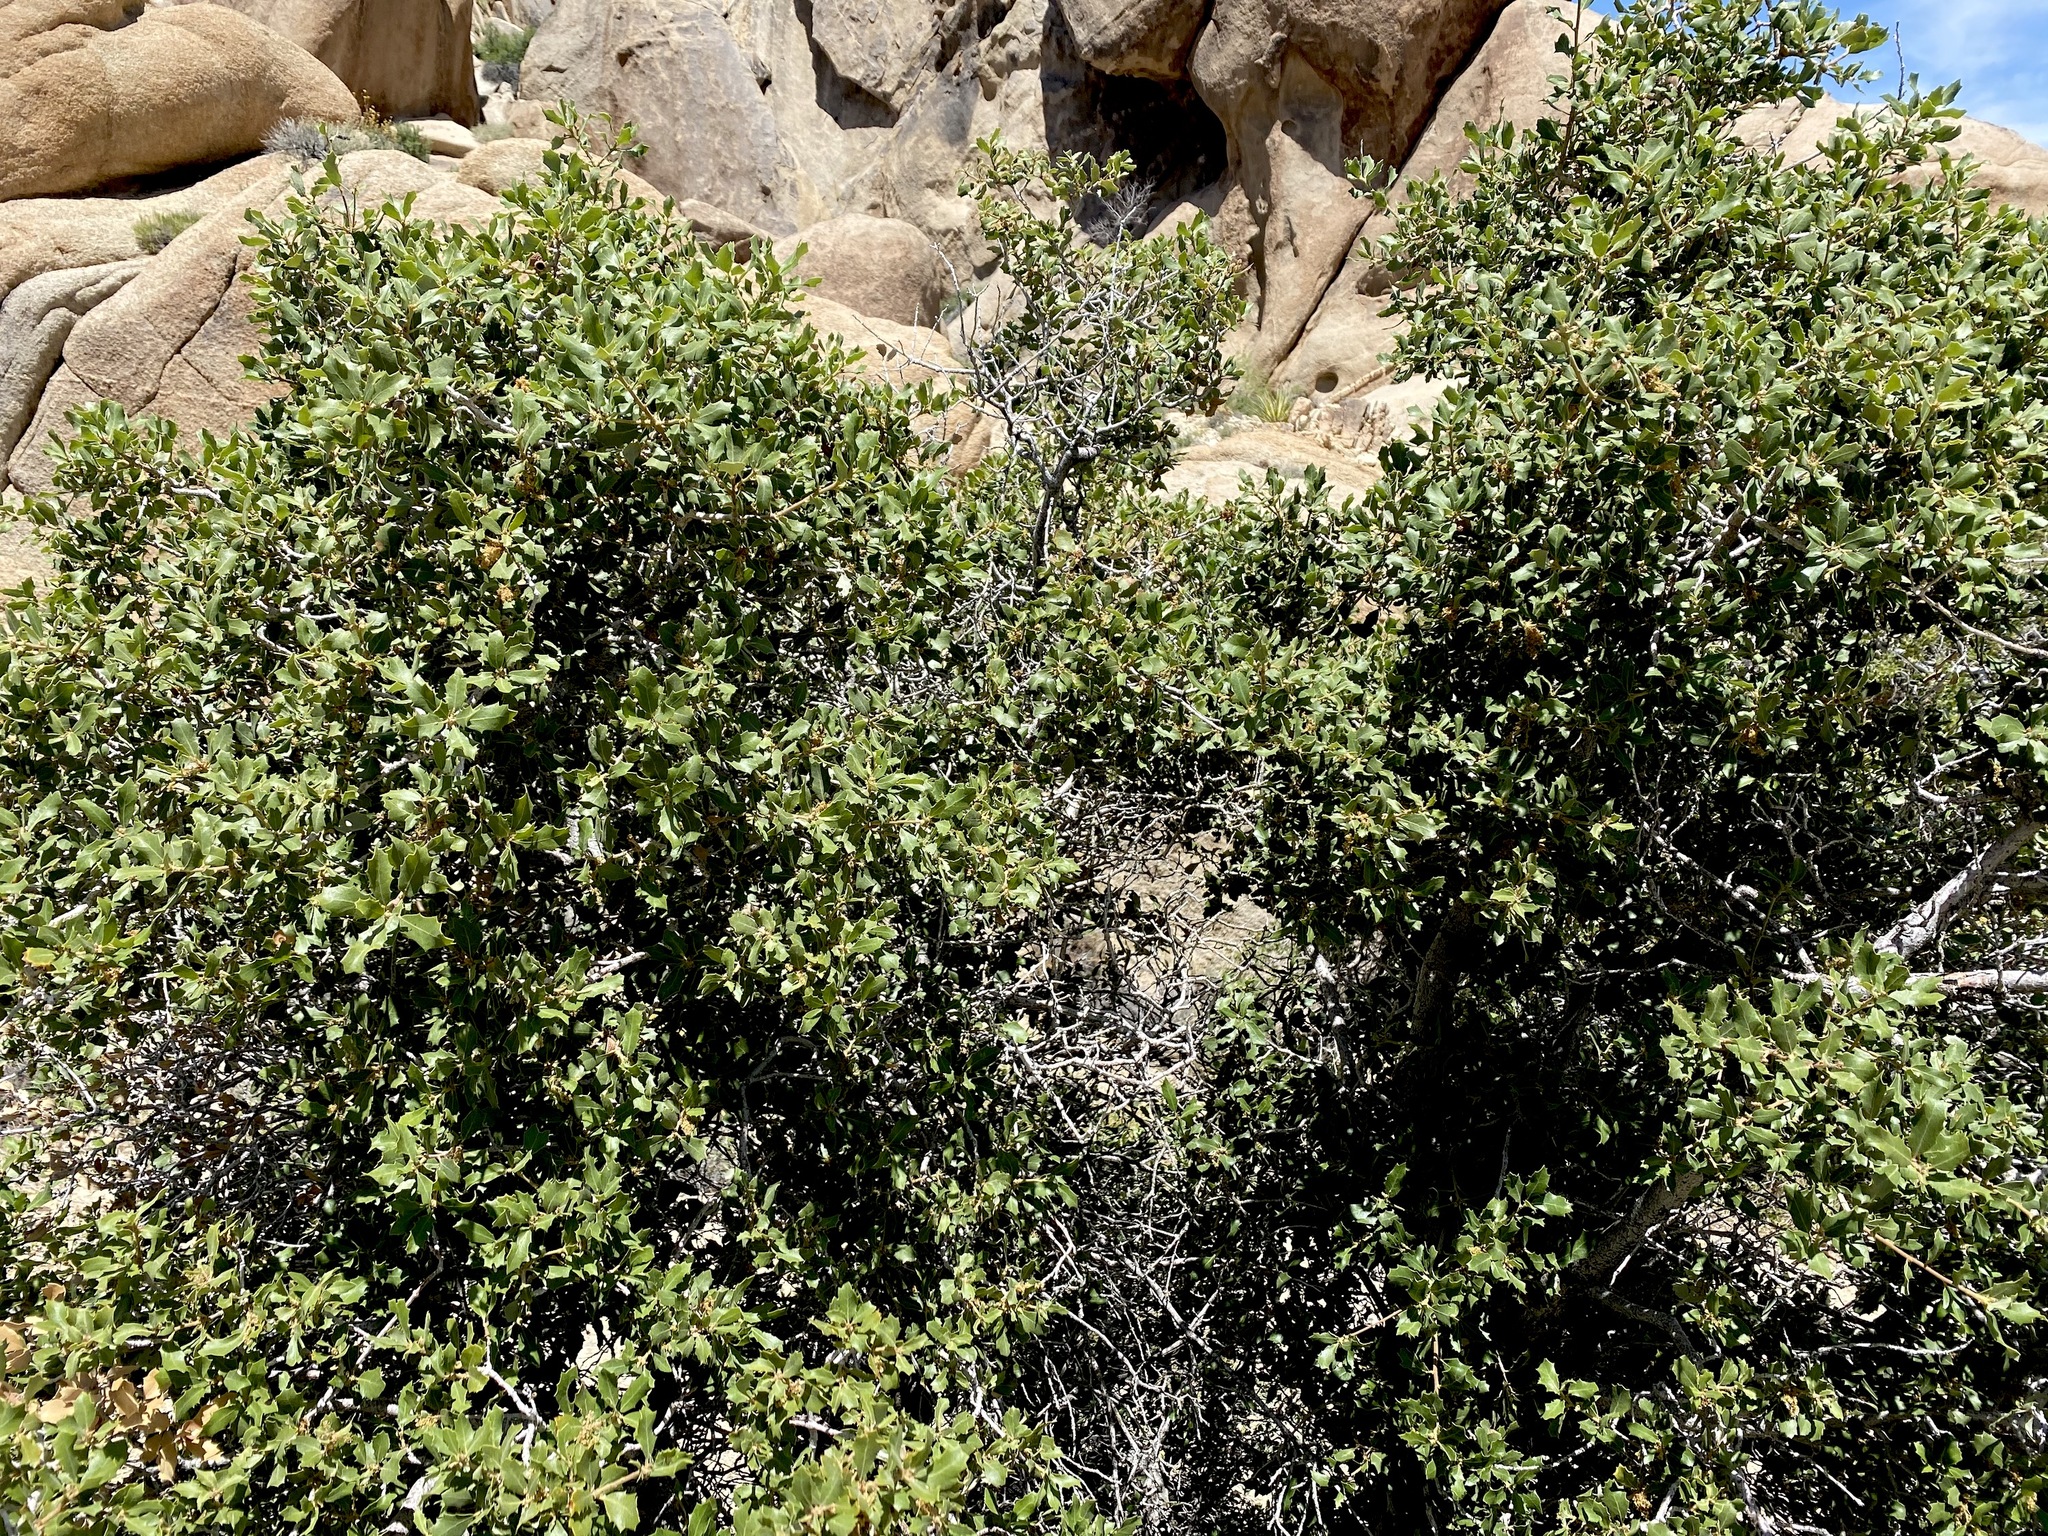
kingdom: Plantae
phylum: Tracheophyta
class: Magnoliopsida
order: Fagales
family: Fagaceae
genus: Quercus
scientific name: Quercus cornelius-mulleri
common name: Muller oak
